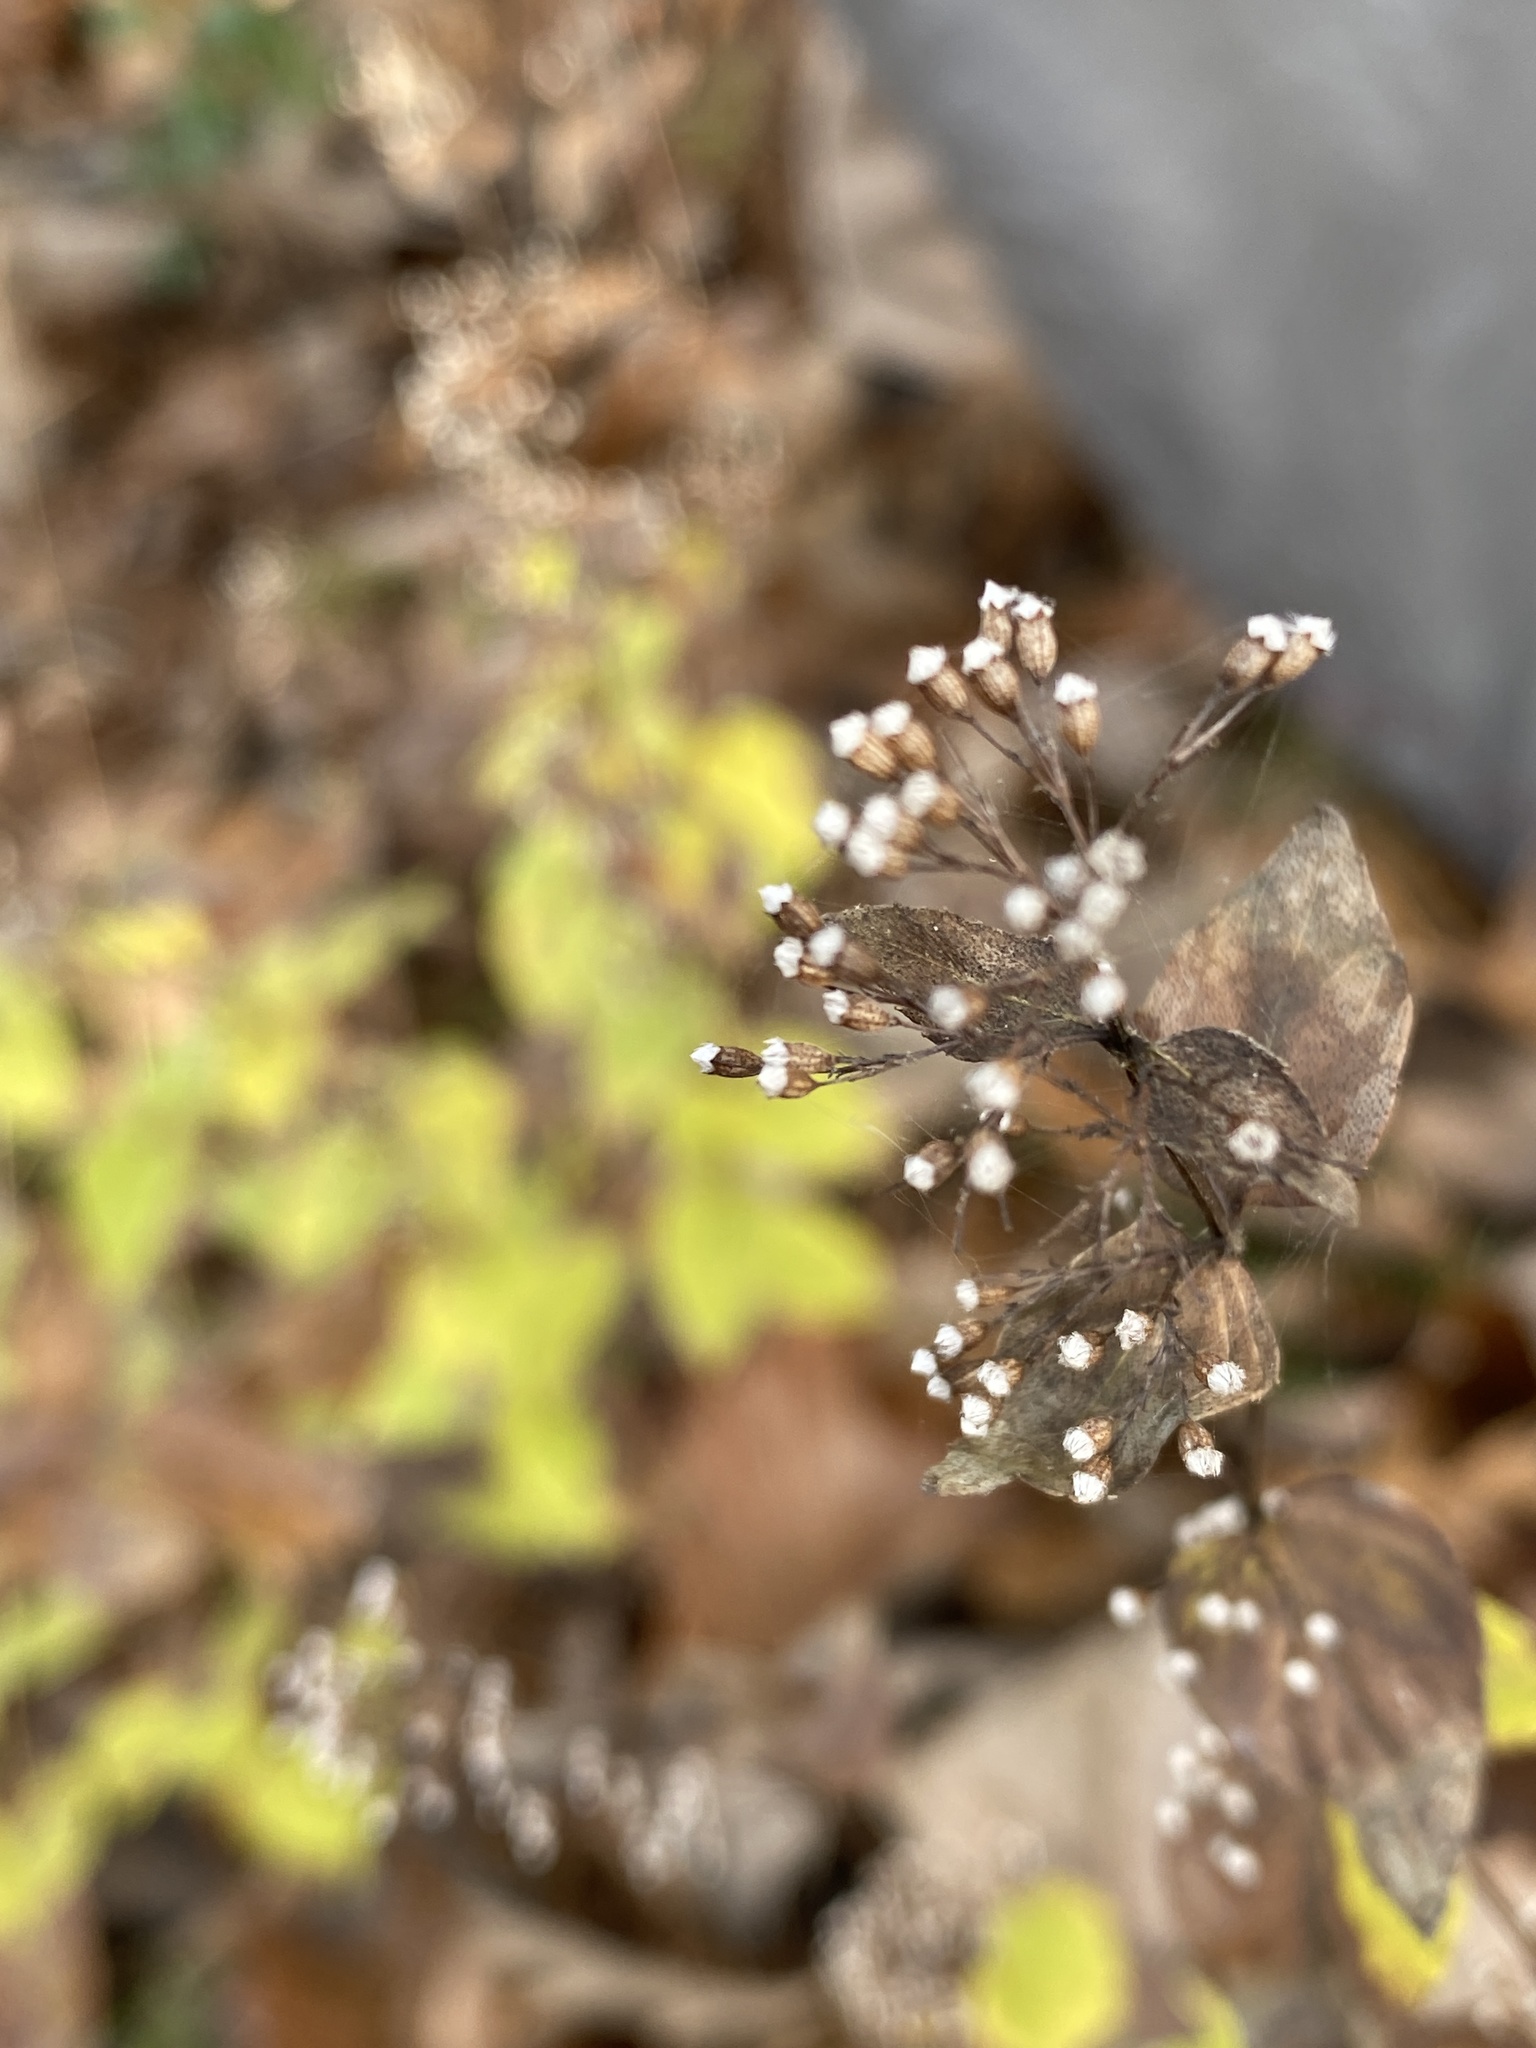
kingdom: Plantae
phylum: Tracheophyta
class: Magnoliopsida
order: Lamiales
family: Lamiaceae
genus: Cunila
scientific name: Cunila origanoides
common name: American dittany
